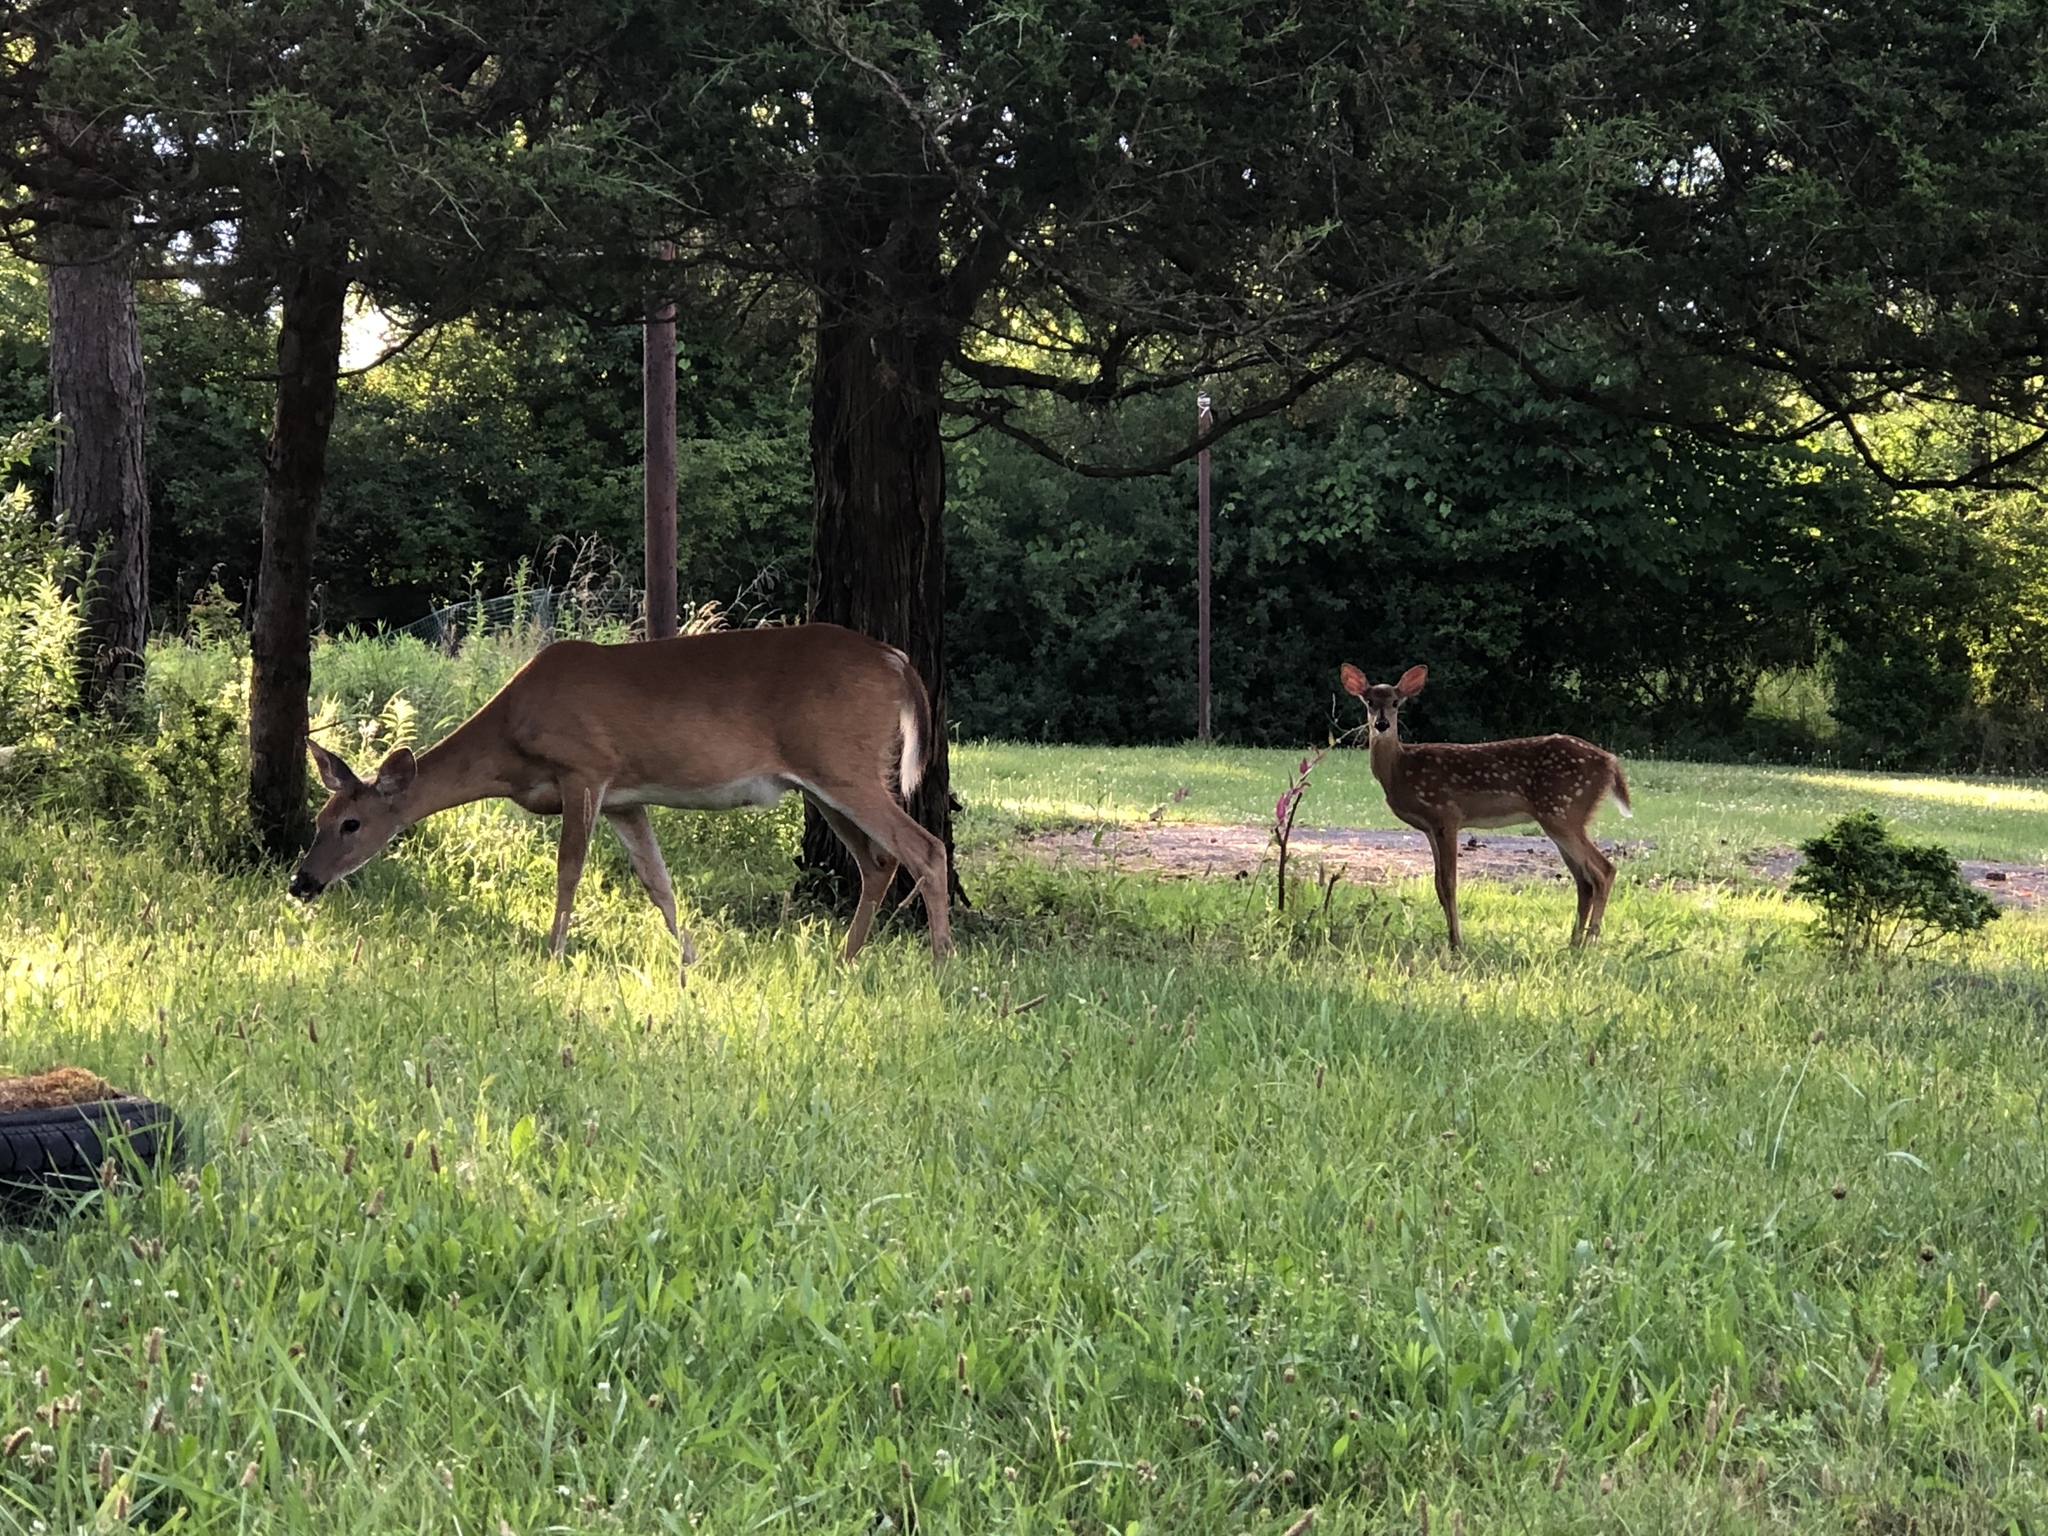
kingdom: Animalia
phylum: Chordata
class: Mammalia
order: Artiodactyla
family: Cervidae
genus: Odocoileus
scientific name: Odocoileus virginianus
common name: White-tailed deer
